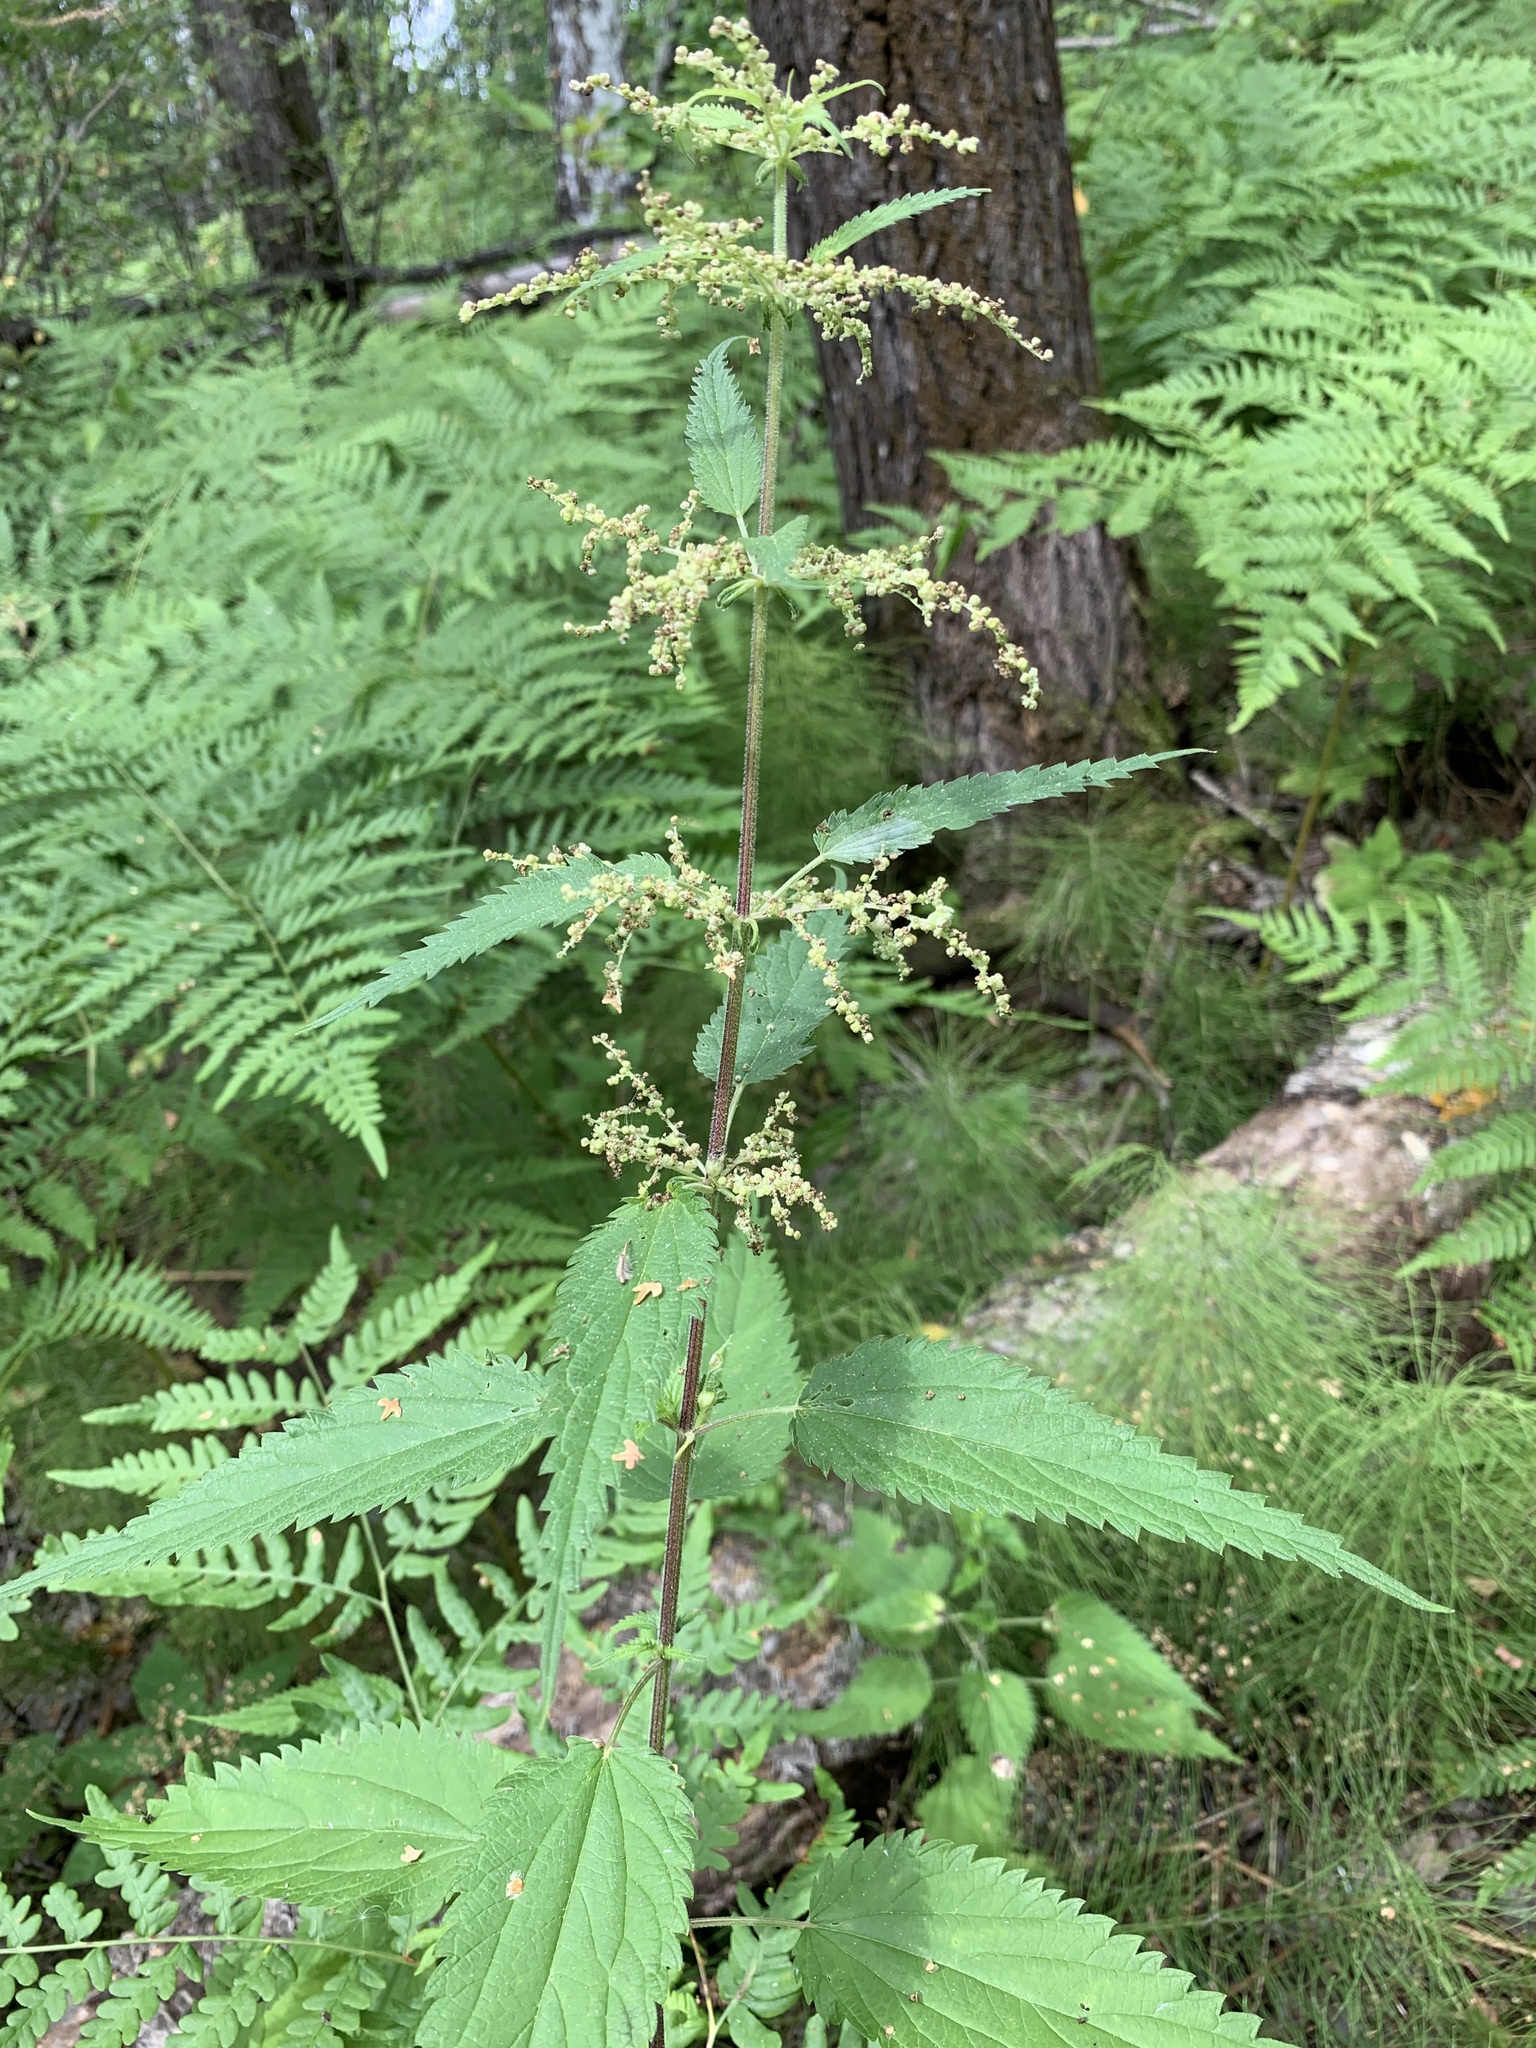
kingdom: Plantae
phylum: Tracheophyta
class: Magnoliopsida
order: Rosales
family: Urticaceae
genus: Urtica
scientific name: Urtica galeopsifolia
